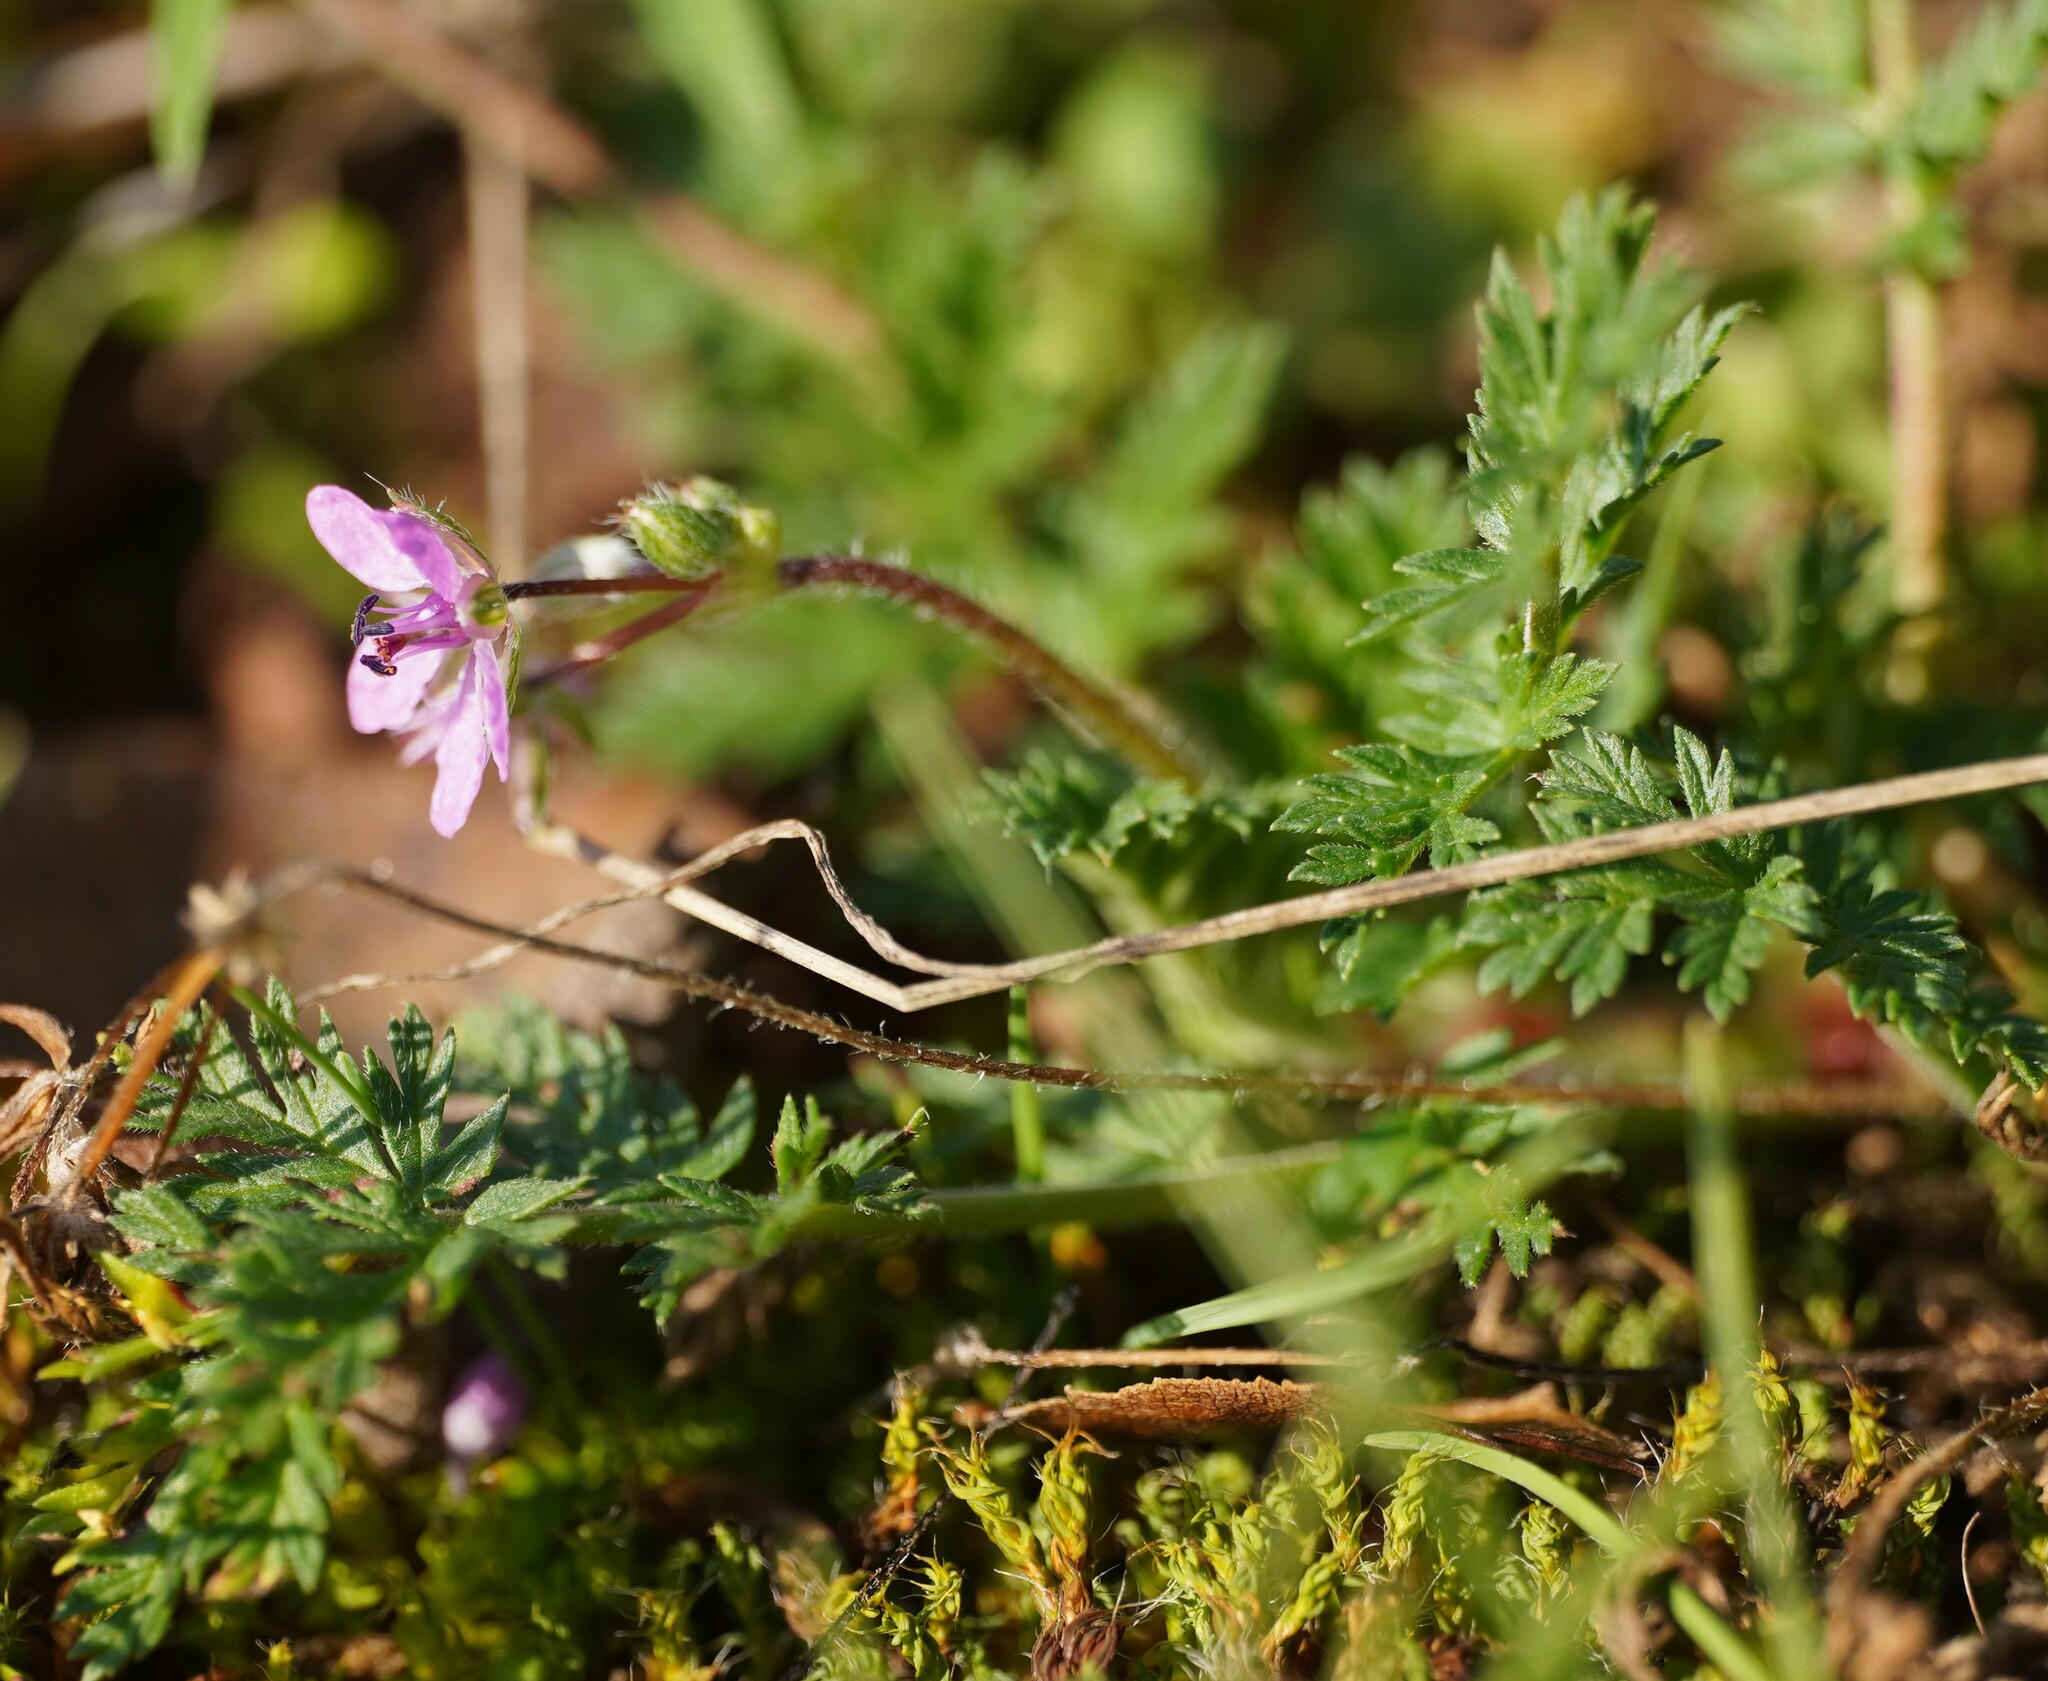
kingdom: Plantae
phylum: Tracheophyta
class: Magnoliopsida
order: Geraniales
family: Geraniaceae
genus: Erodium
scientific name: Erodium cicutarium
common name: Common stork's-bill
